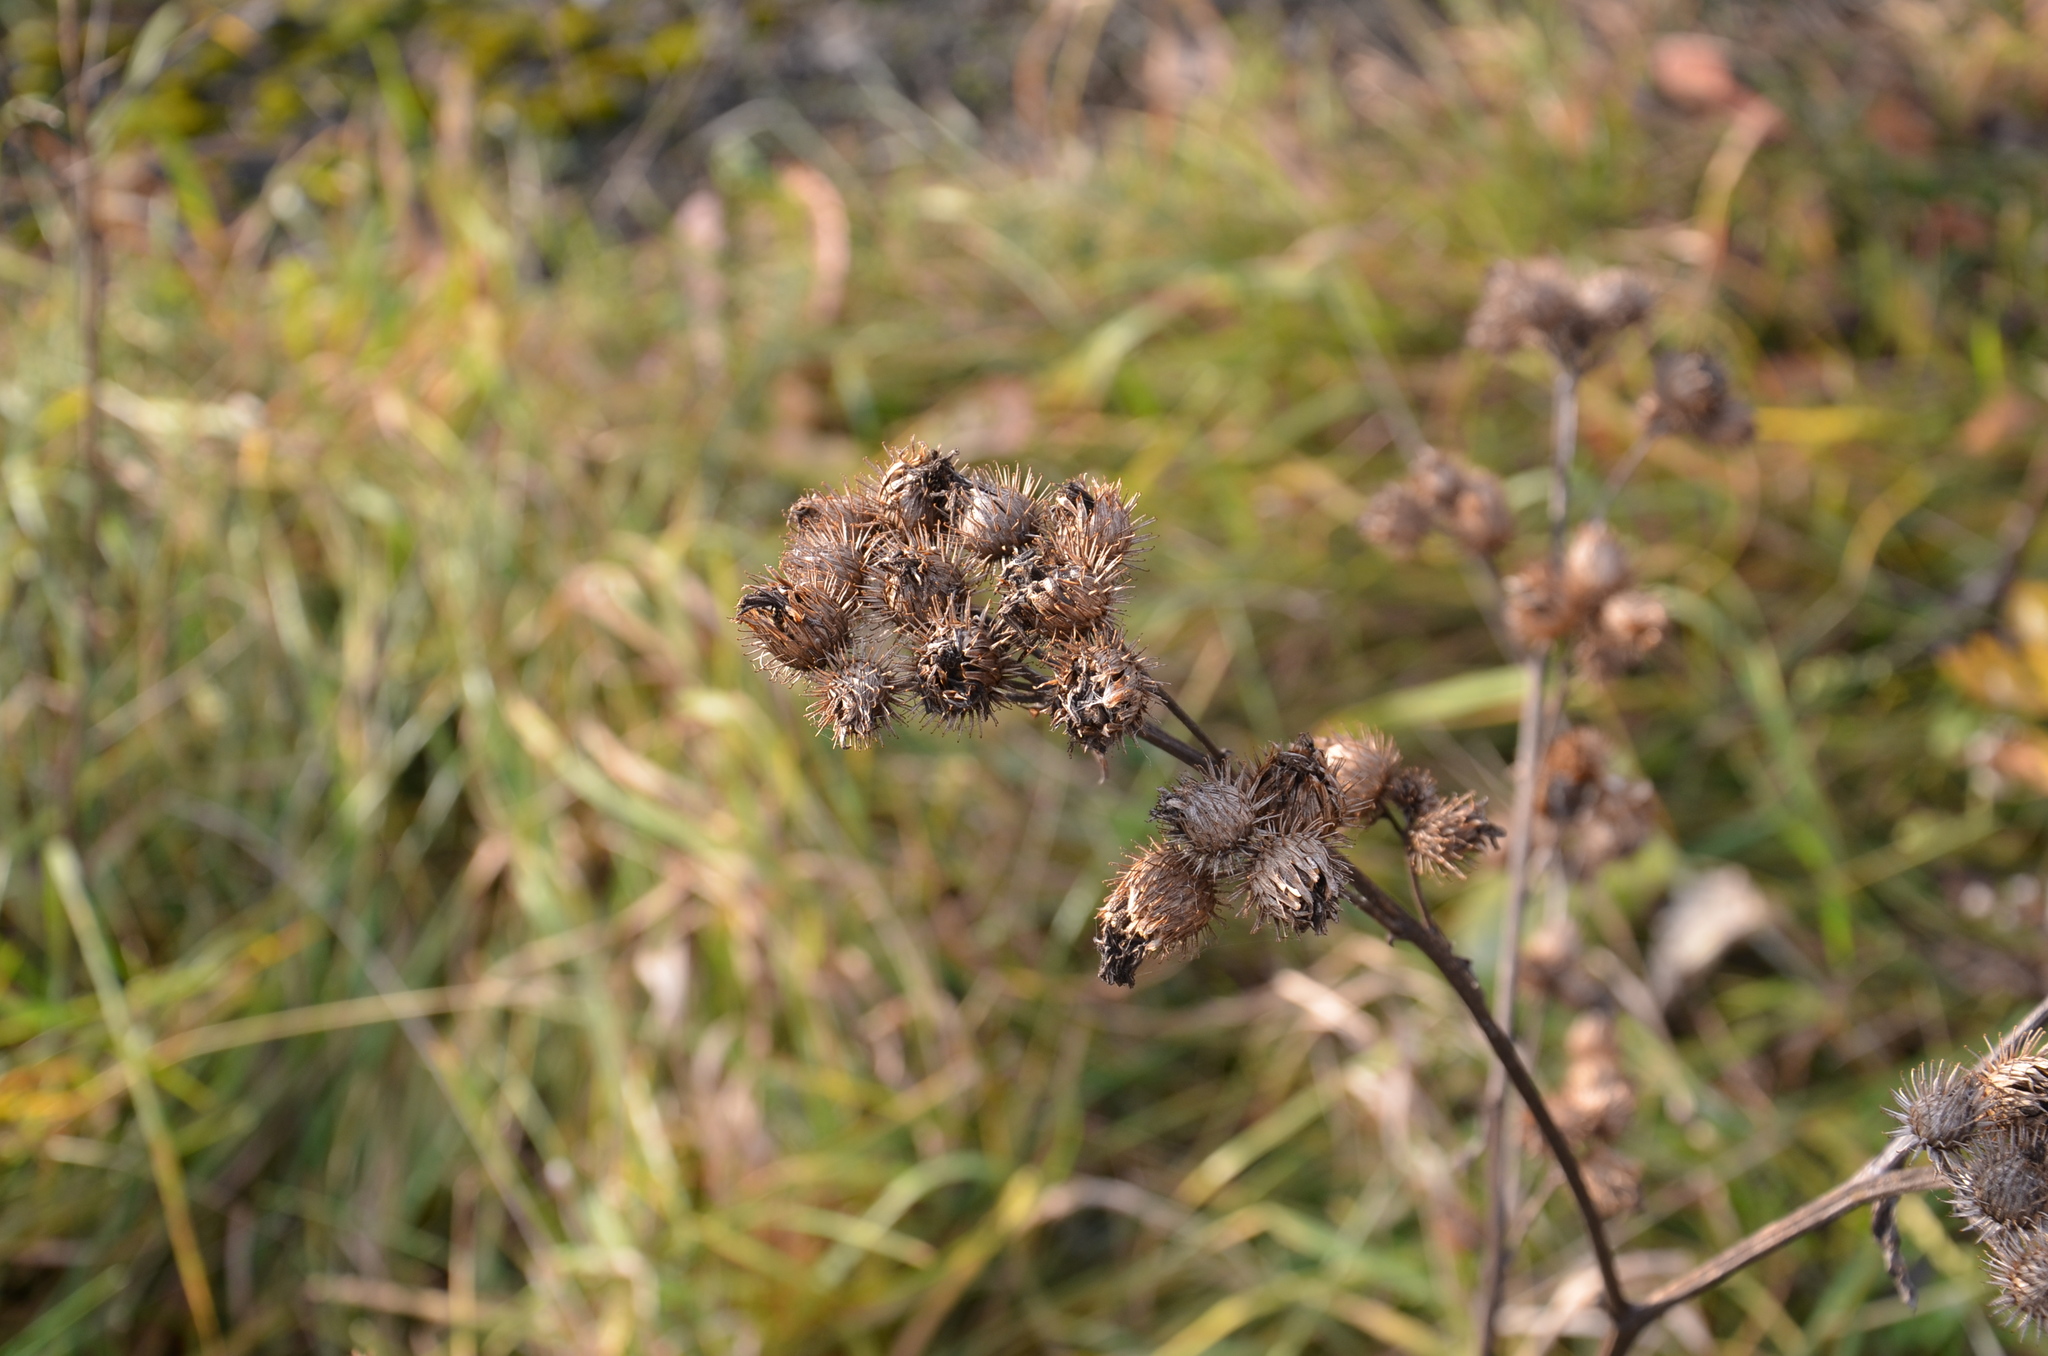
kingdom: Plantae
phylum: Tracheophyta
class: Magnoliopsida
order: Asterales
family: Asteraceae
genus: Arctium
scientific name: Arctium tomentosum
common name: Woolly burdock
